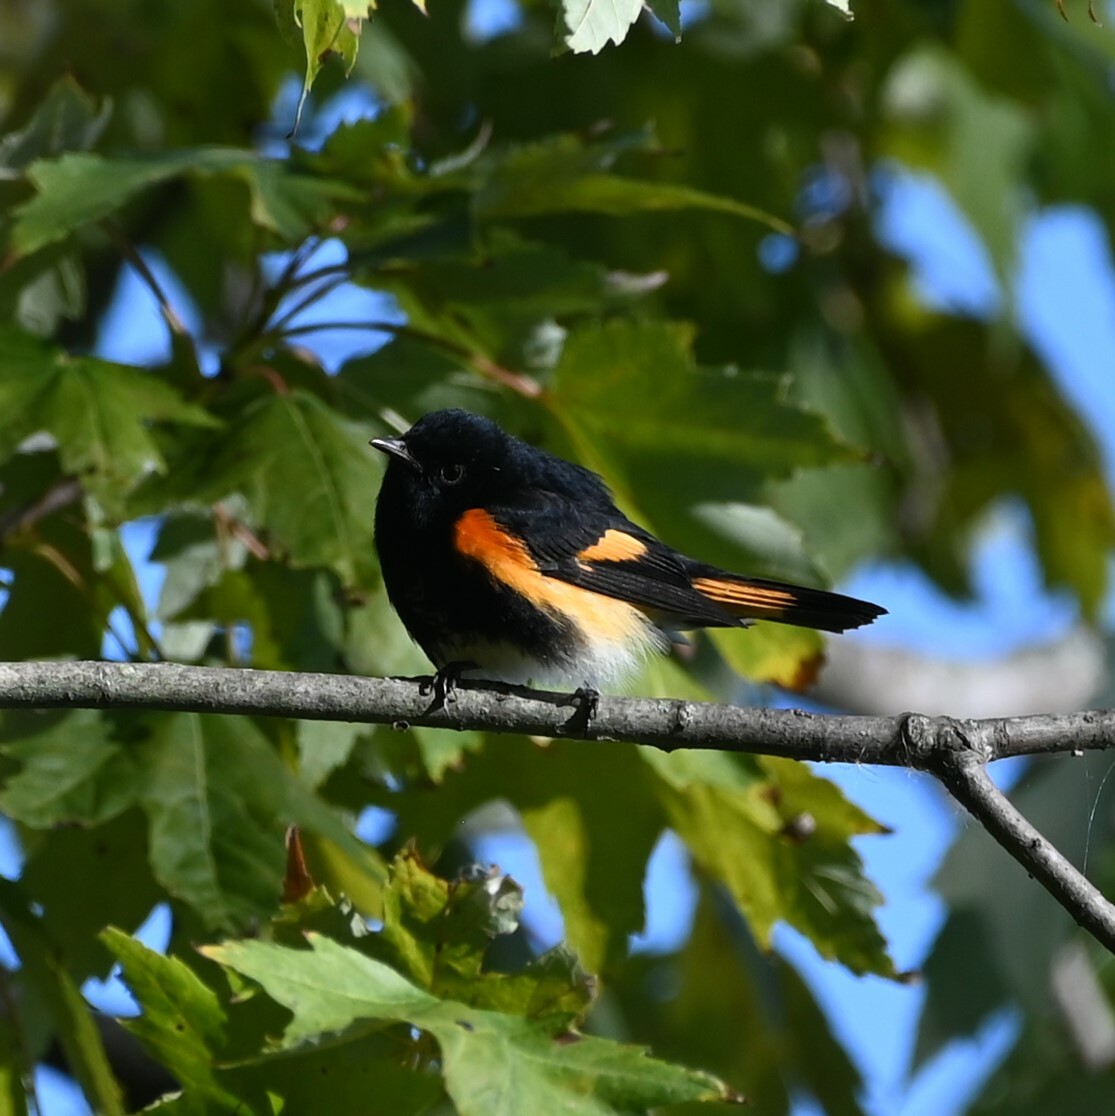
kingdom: Animalia
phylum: Chordata
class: Aves
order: Passeriformes
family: Parulidae
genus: Setophaga
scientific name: Setophaga ruticilla
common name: American redstart
